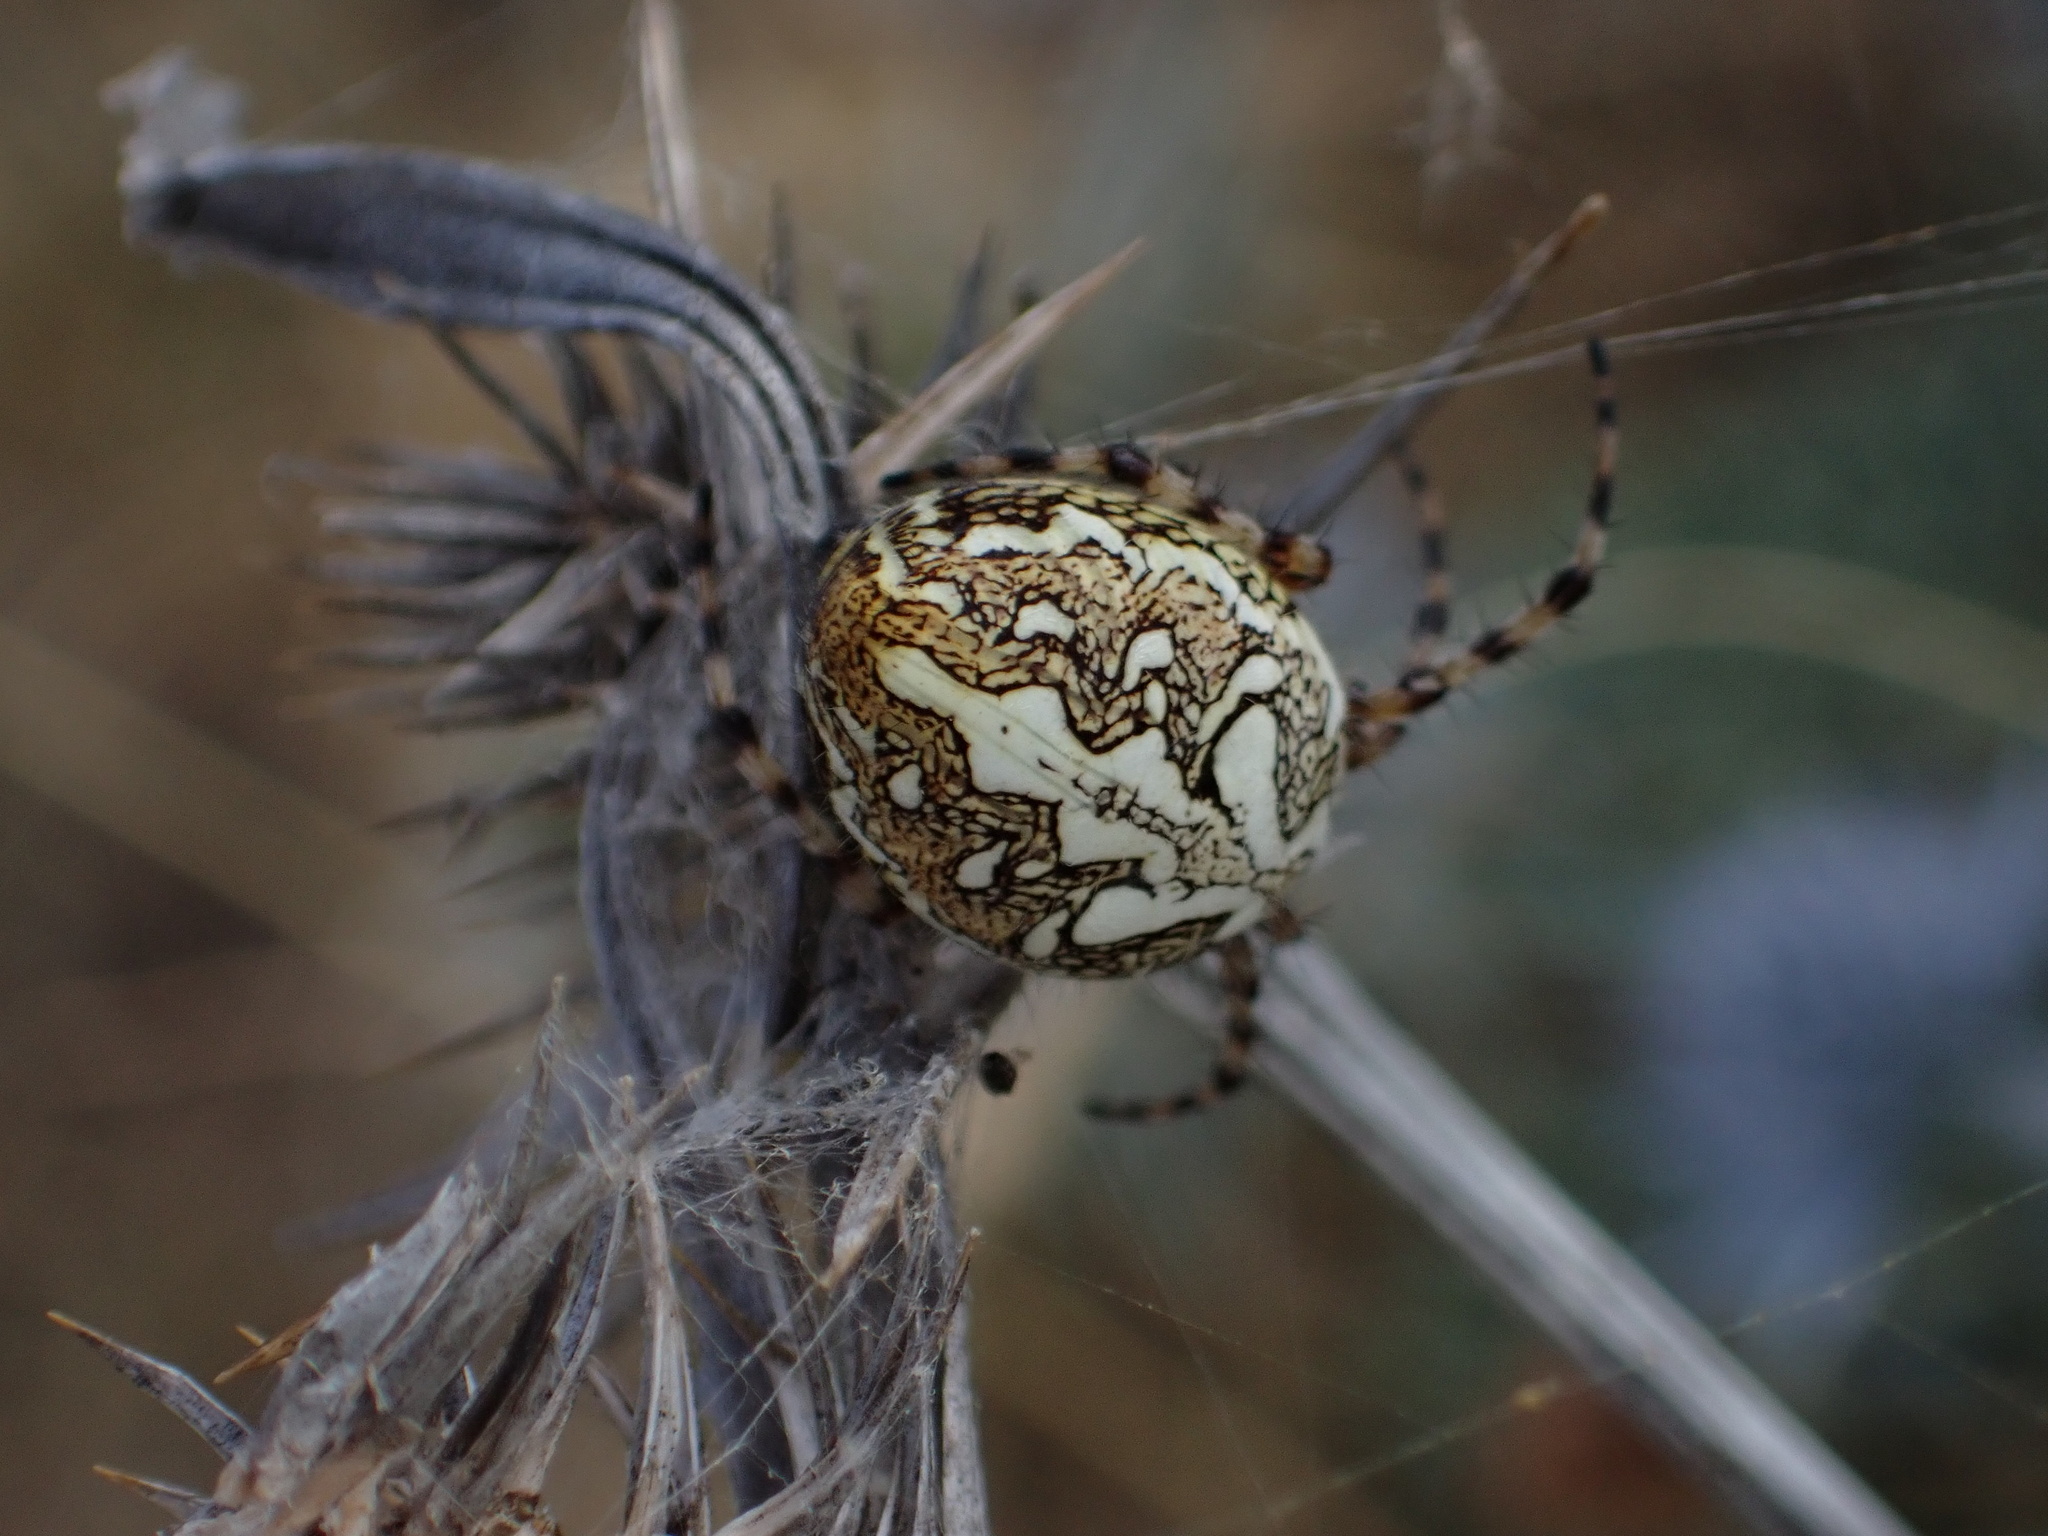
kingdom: Animalia
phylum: Arthropoda
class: Arachnida
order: Araneae
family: Araneidae
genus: Aculepeira
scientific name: Aculepeira ceropegia
